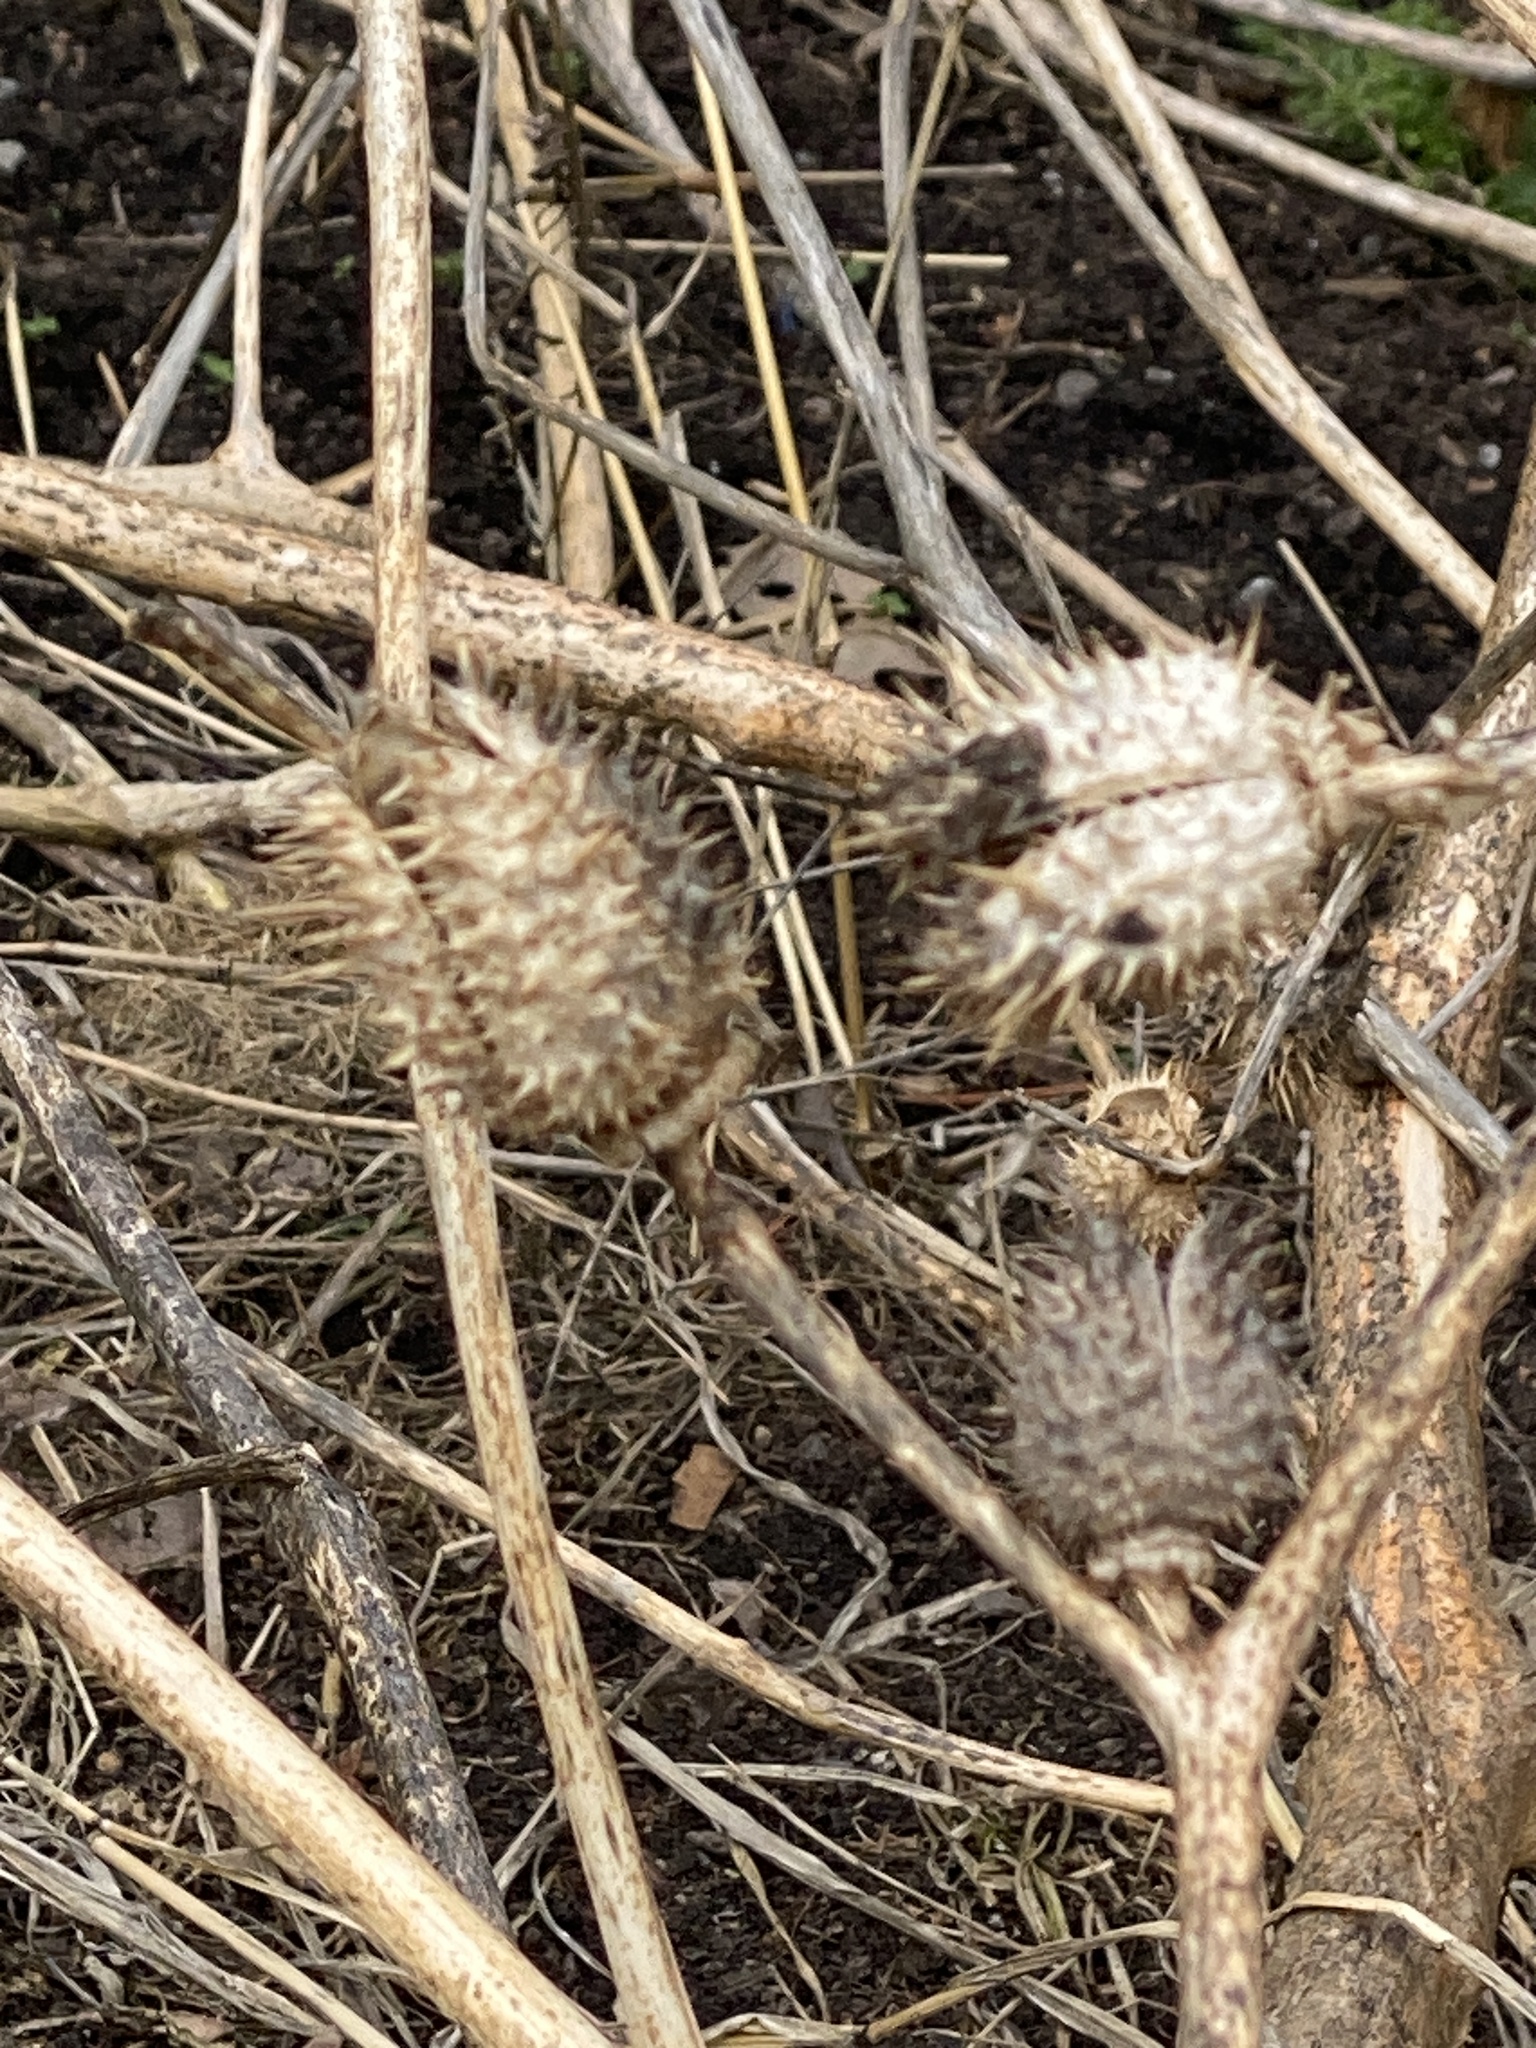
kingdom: Plantae
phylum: Tracheophyta
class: Magnoliopsida
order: Solanales
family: Solanaceae
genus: Datura
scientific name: Datura stramonium
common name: Thorn-apple
